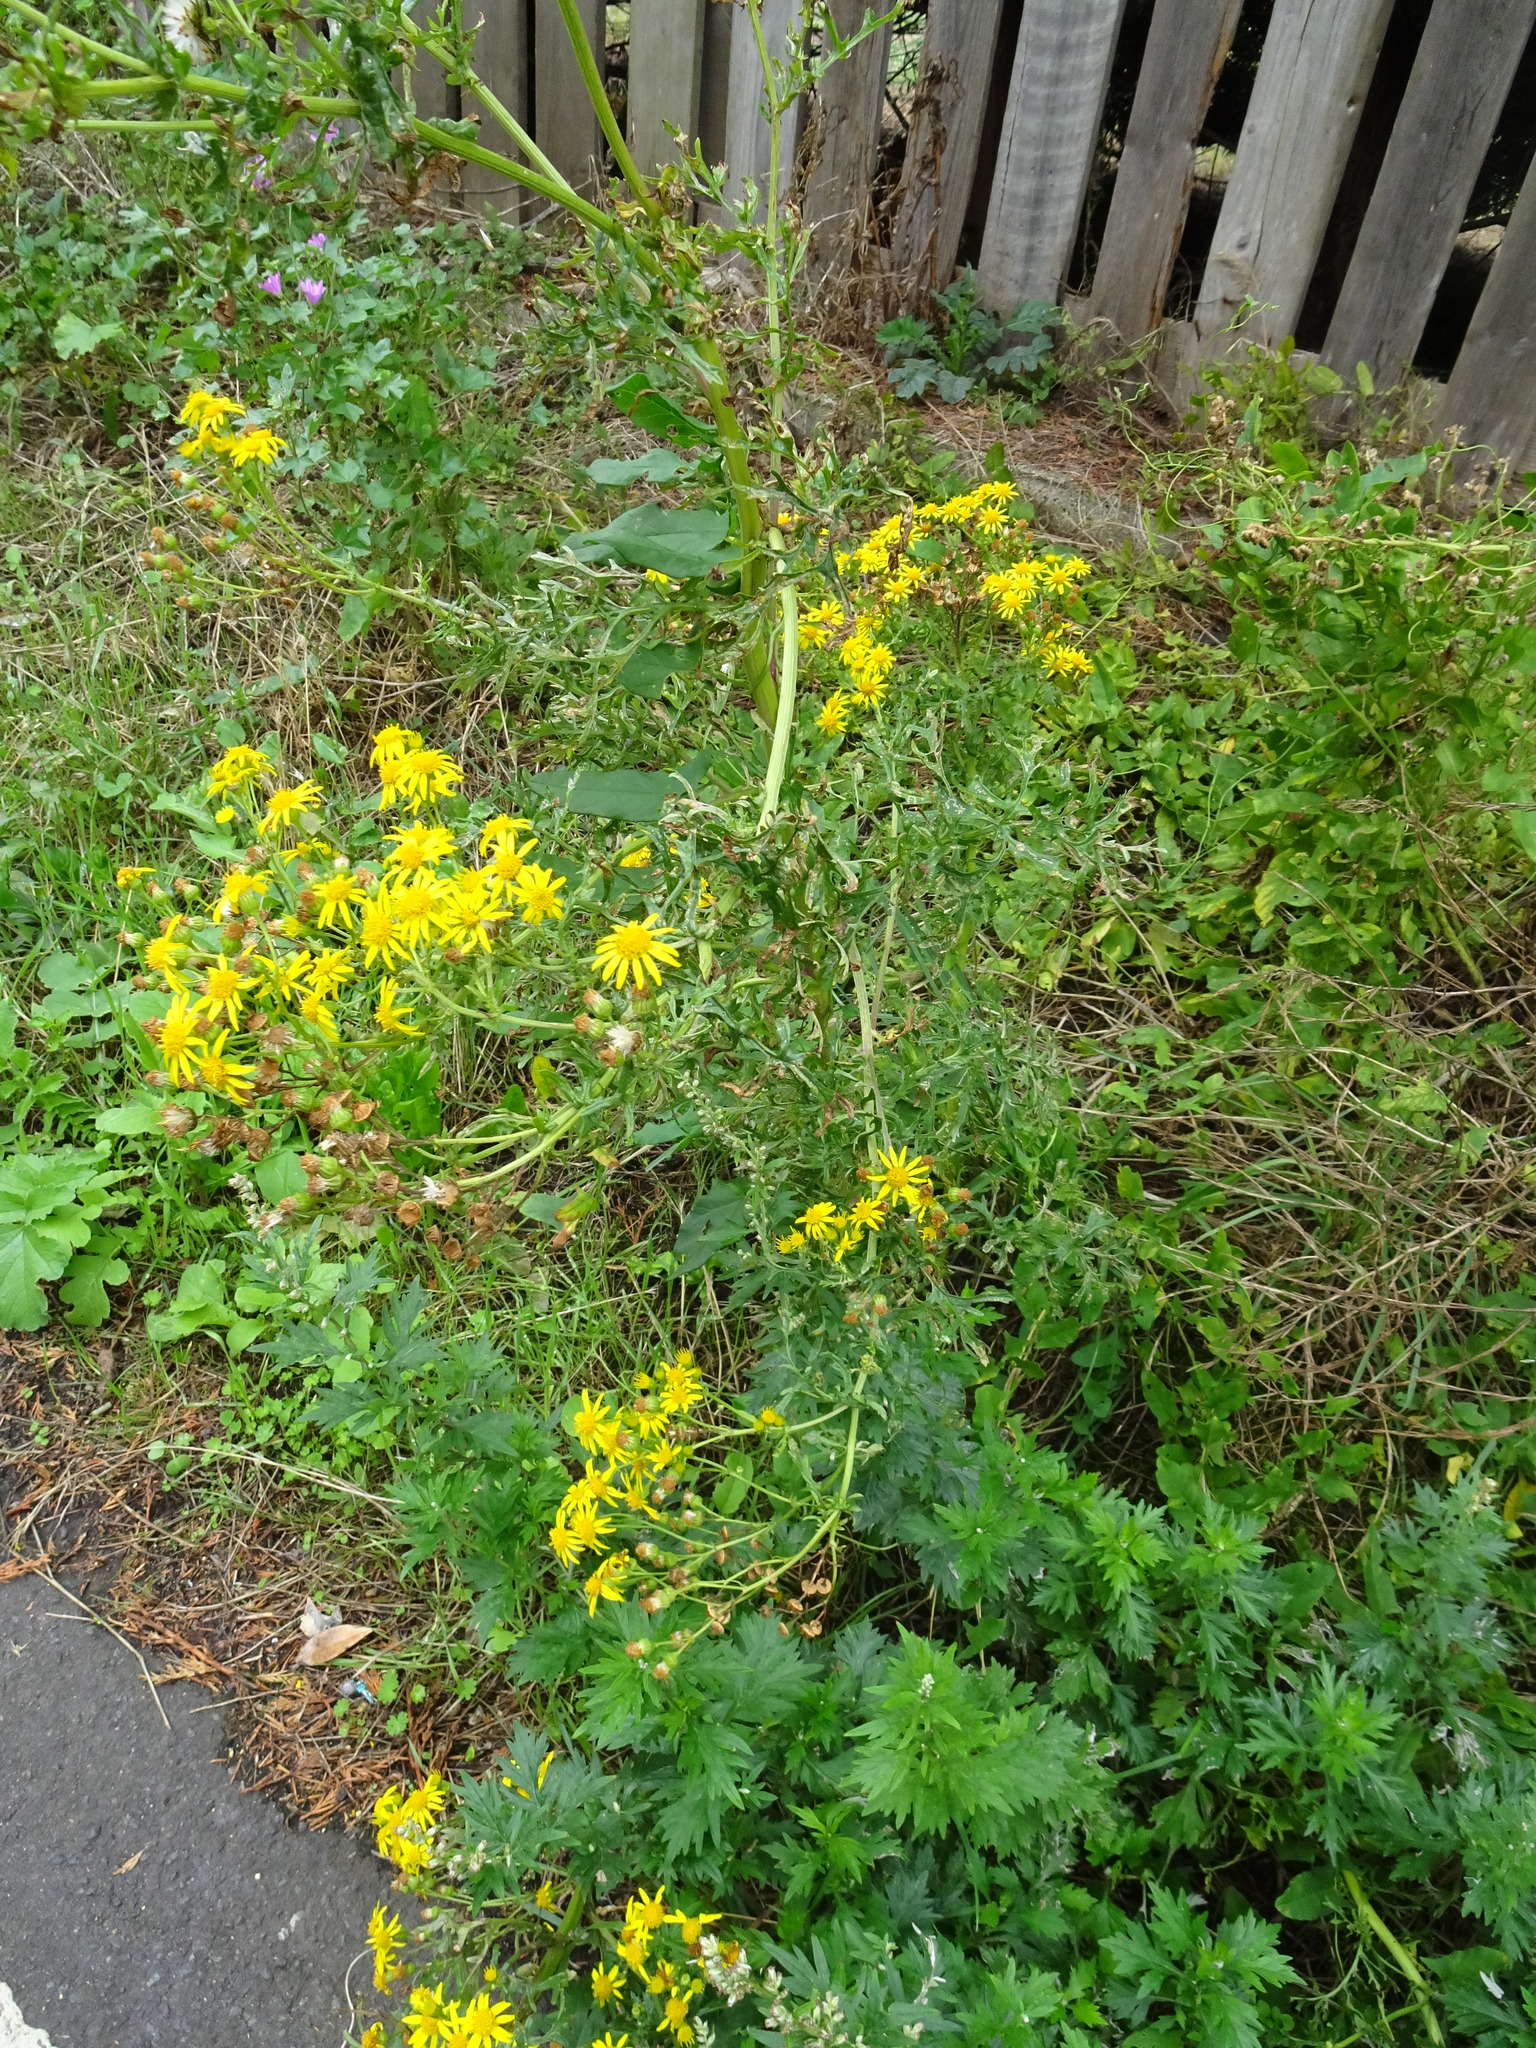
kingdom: Plantae
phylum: Tracheophyta
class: Magnoliopsida
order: Asterales
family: Asteraceae
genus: Jacobaea
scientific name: Jacobaea vulgaris
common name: Stinking willie
